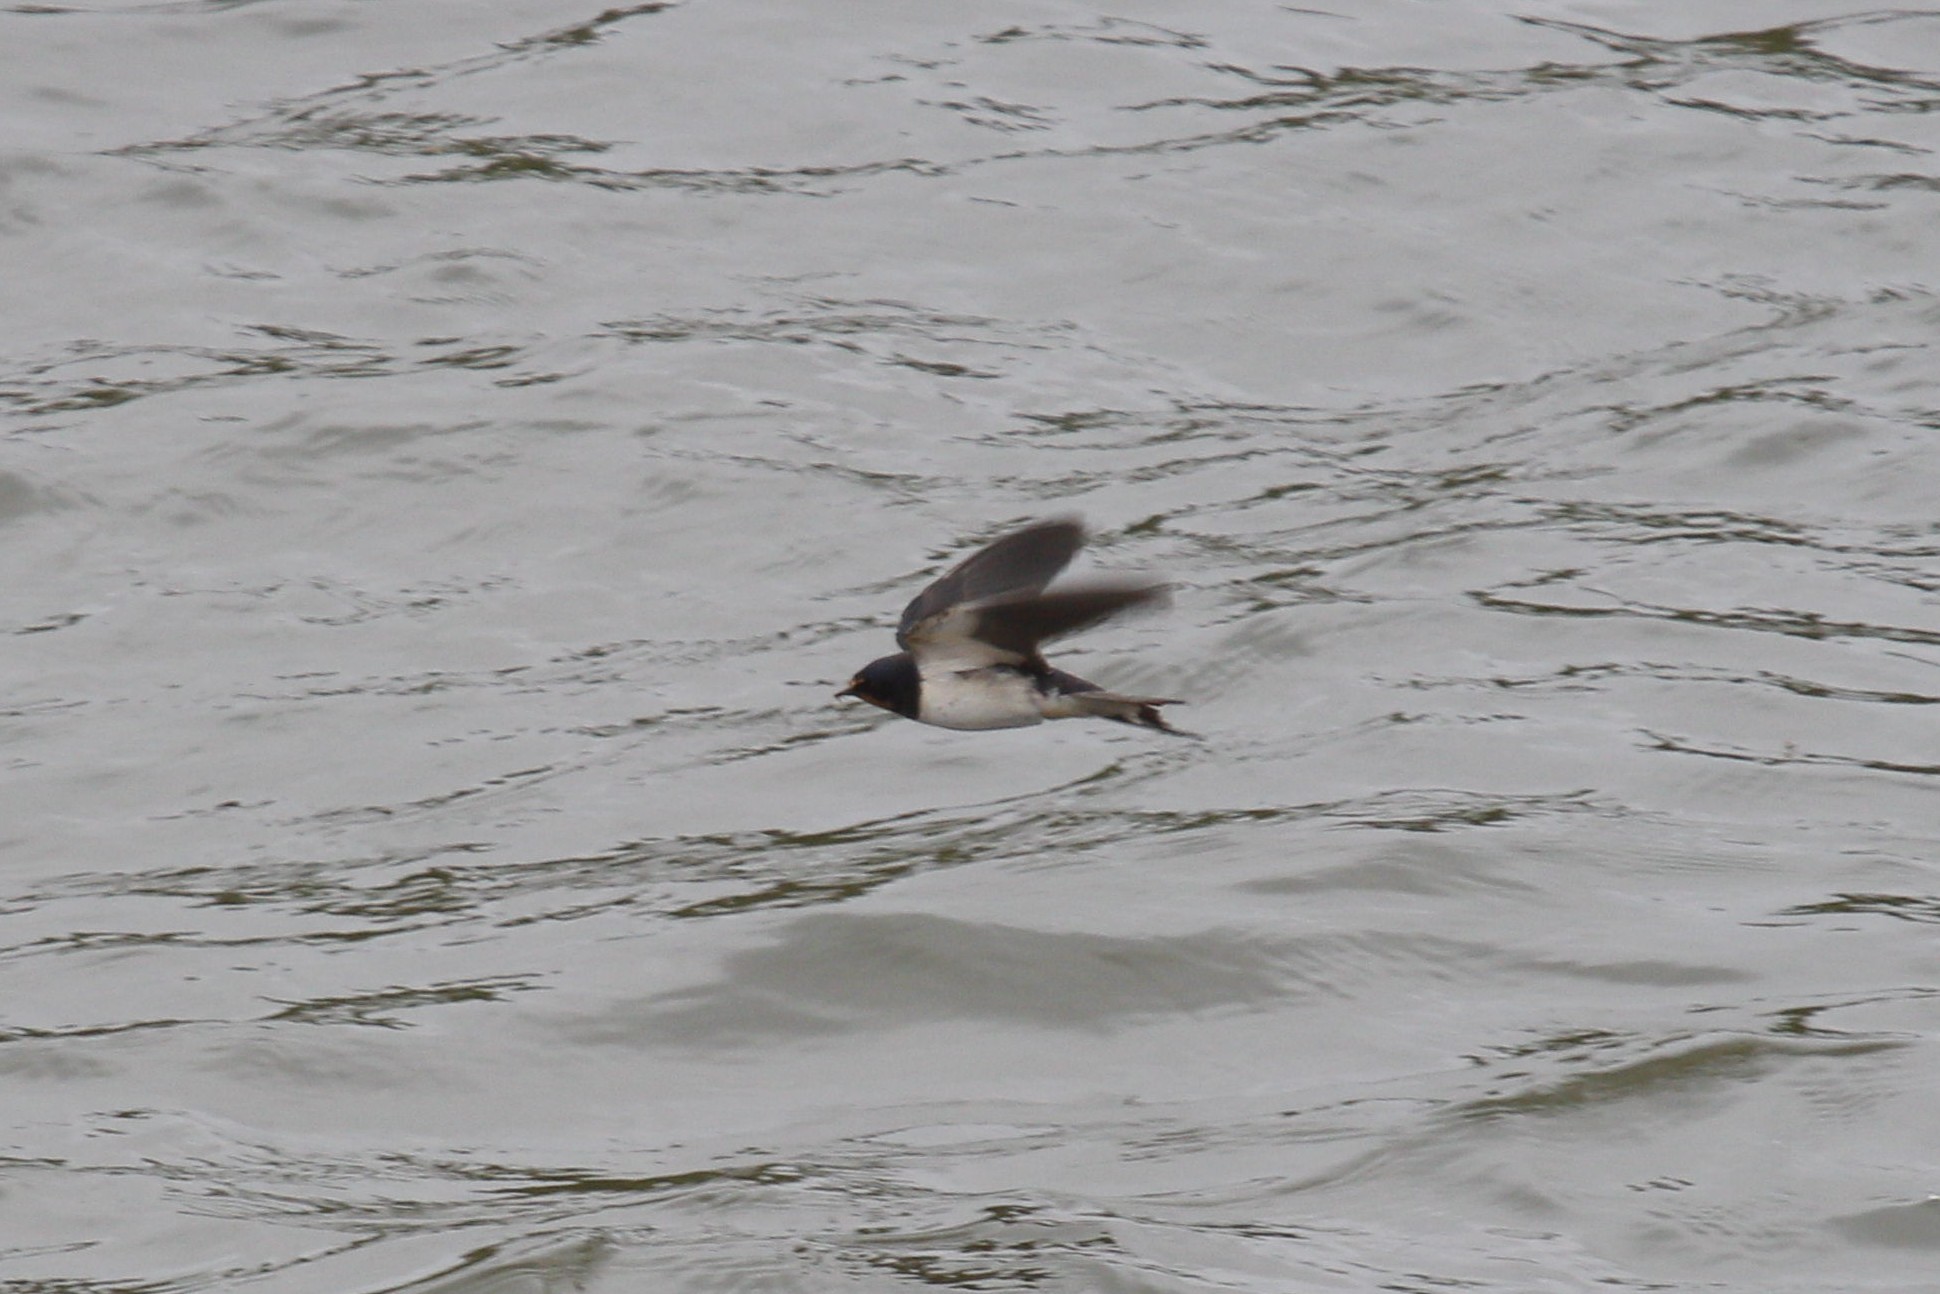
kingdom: Animalia
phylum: Chordata
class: Aves
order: Passeriformes
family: Hirundinidae
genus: Hirundo
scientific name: Hirundo rustica
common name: Barn swallow
